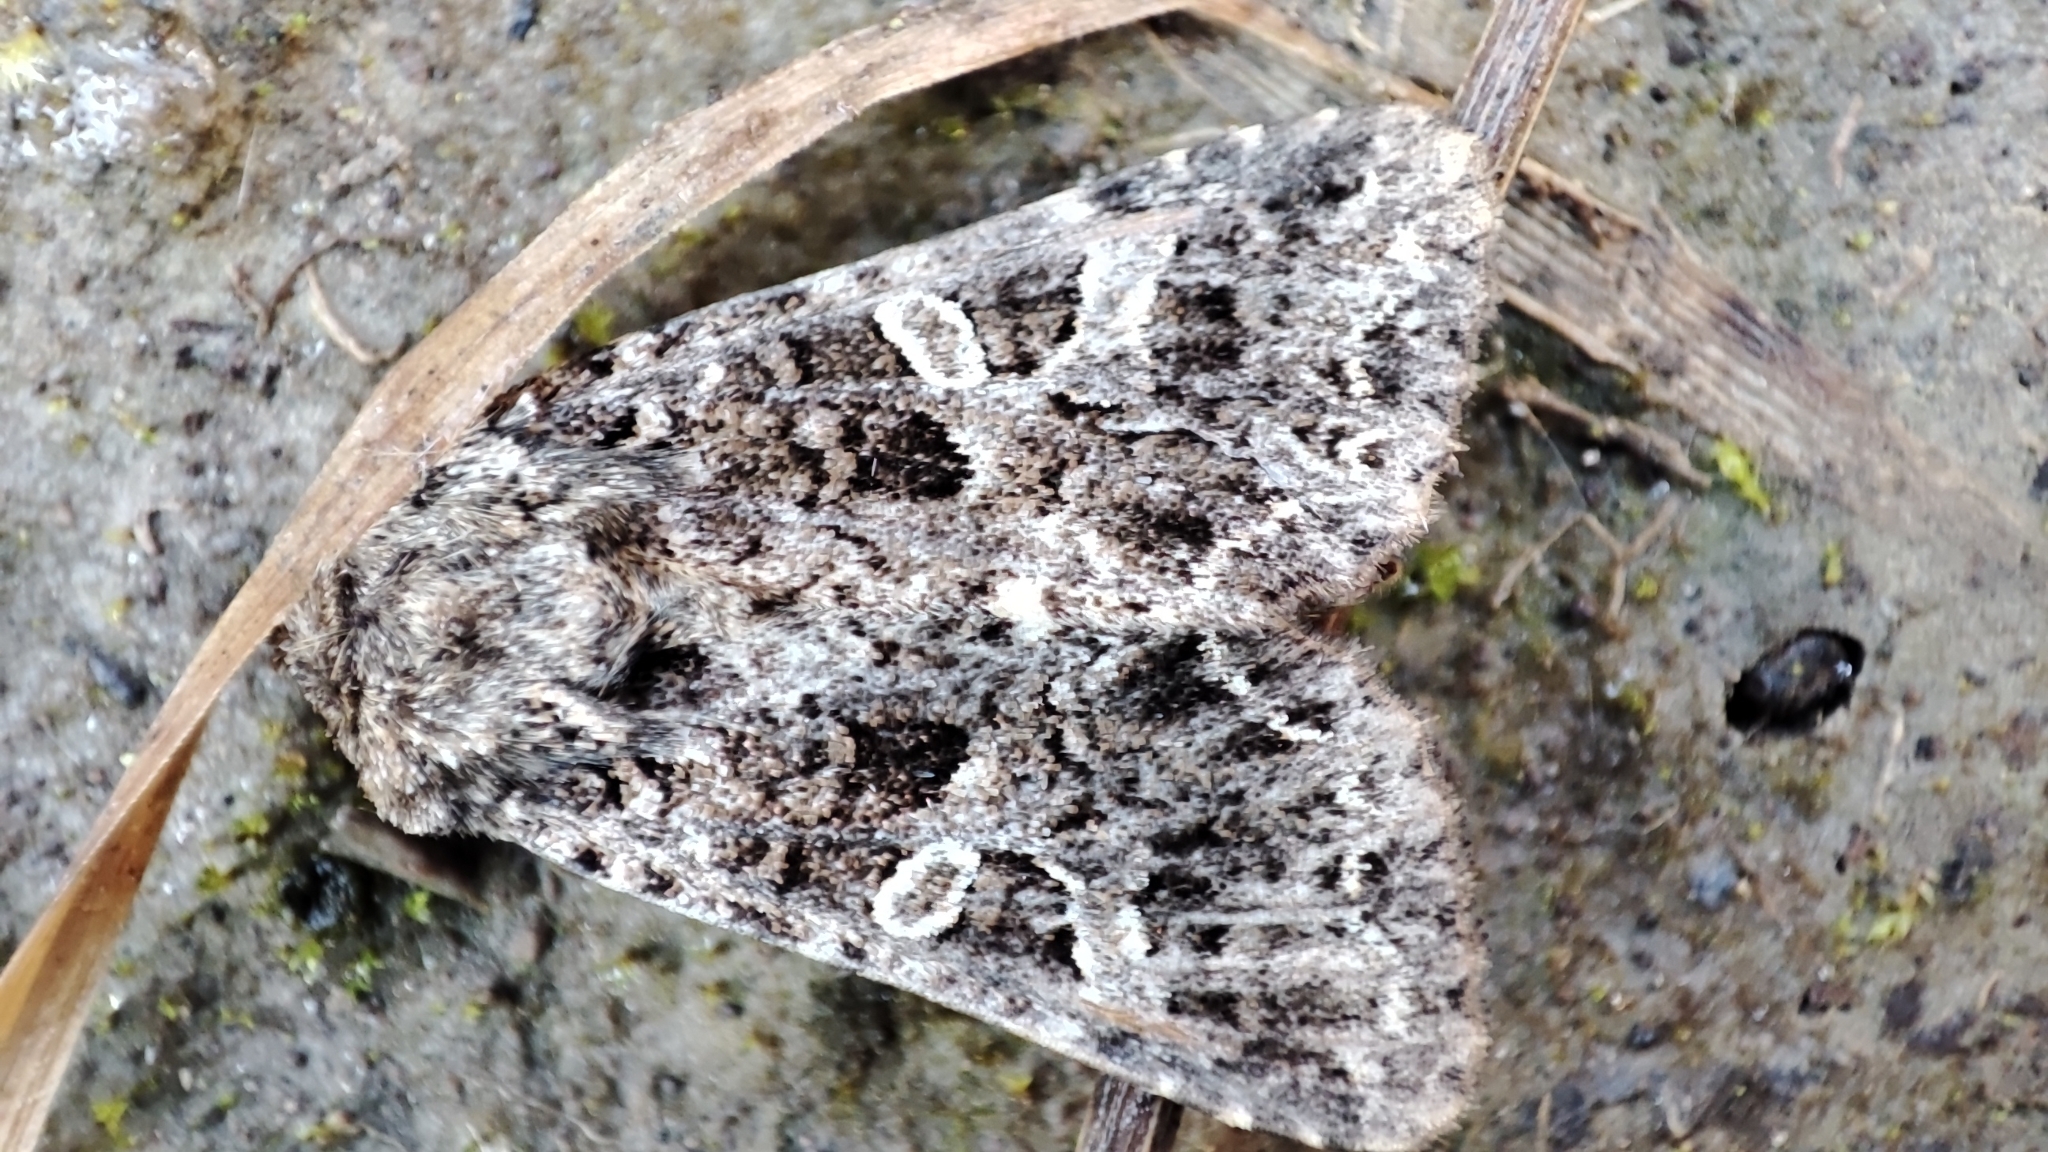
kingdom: Animalia
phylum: Arthropoda
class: Insecta
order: Lepidoptera
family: Noctuidae
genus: Hadena
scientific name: Hadena capsincola
